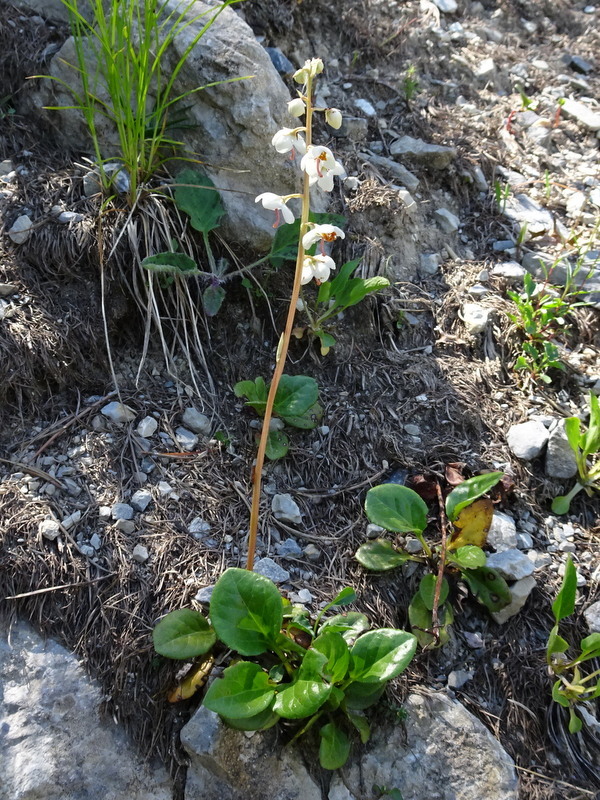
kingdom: Plantae
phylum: Tracheophyta
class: Magnoliopsida
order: Ericales
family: Ericaceae
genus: Pyrola
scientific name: Pyrola rotundifolia
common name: Round-leaved wintergreen
